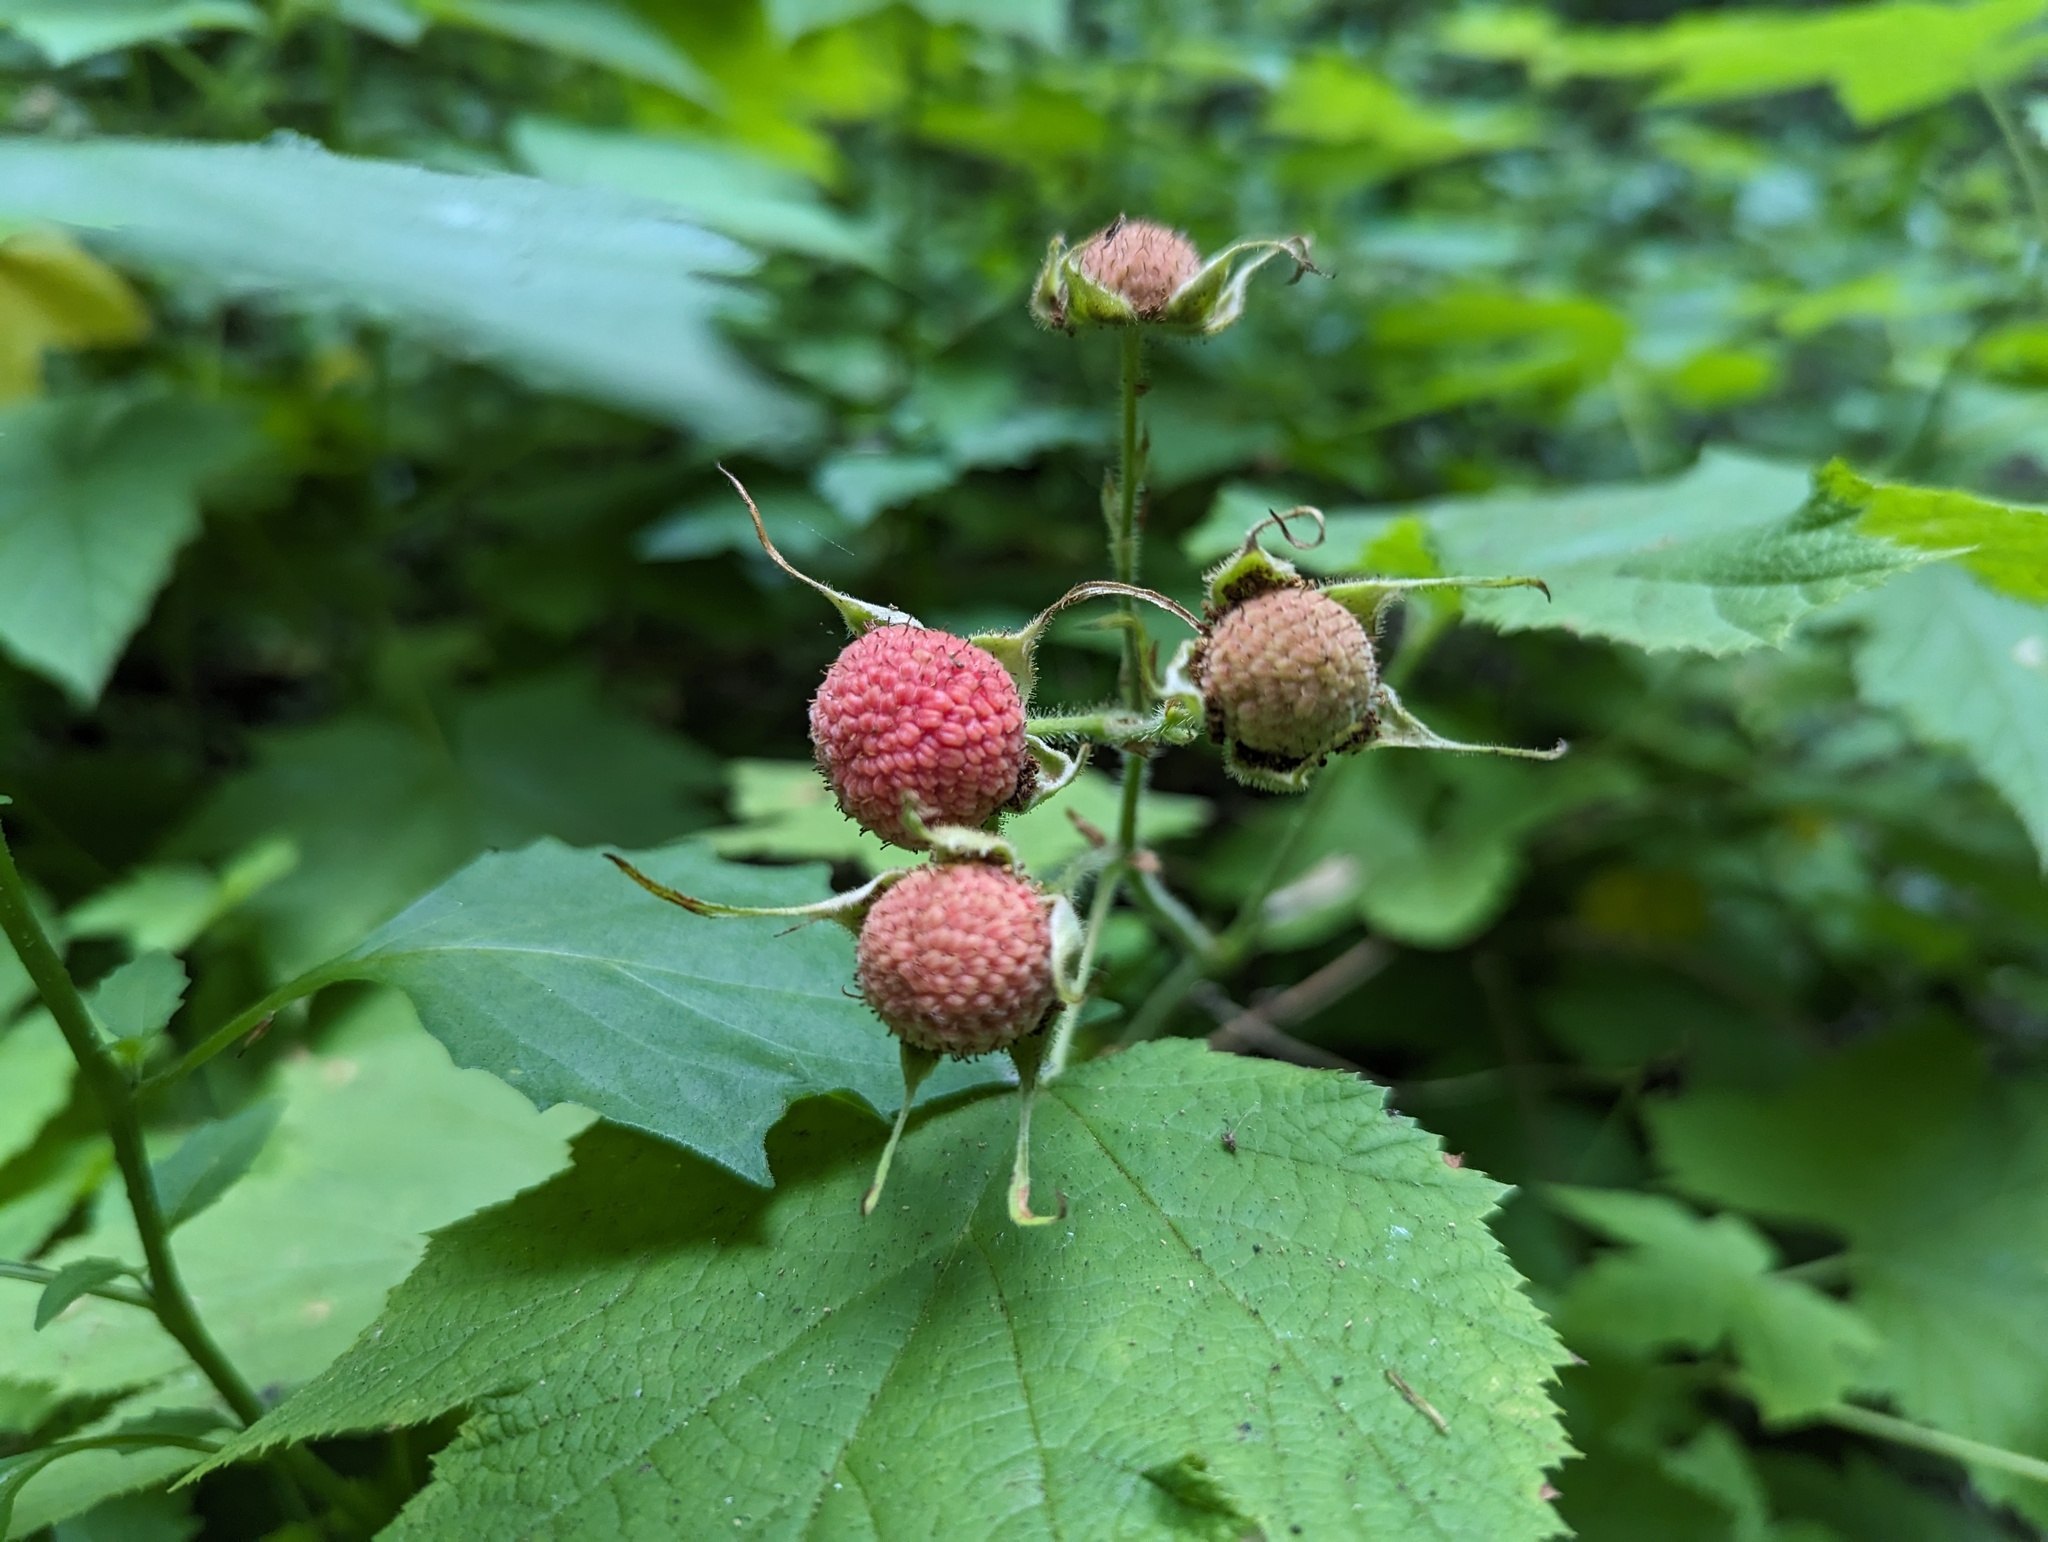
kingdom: Plantae
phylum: Tracheophyta
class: Magnoliopsida
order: Rosales
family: Rosaceae
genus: Rubus
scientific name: Rubus parviflorus
